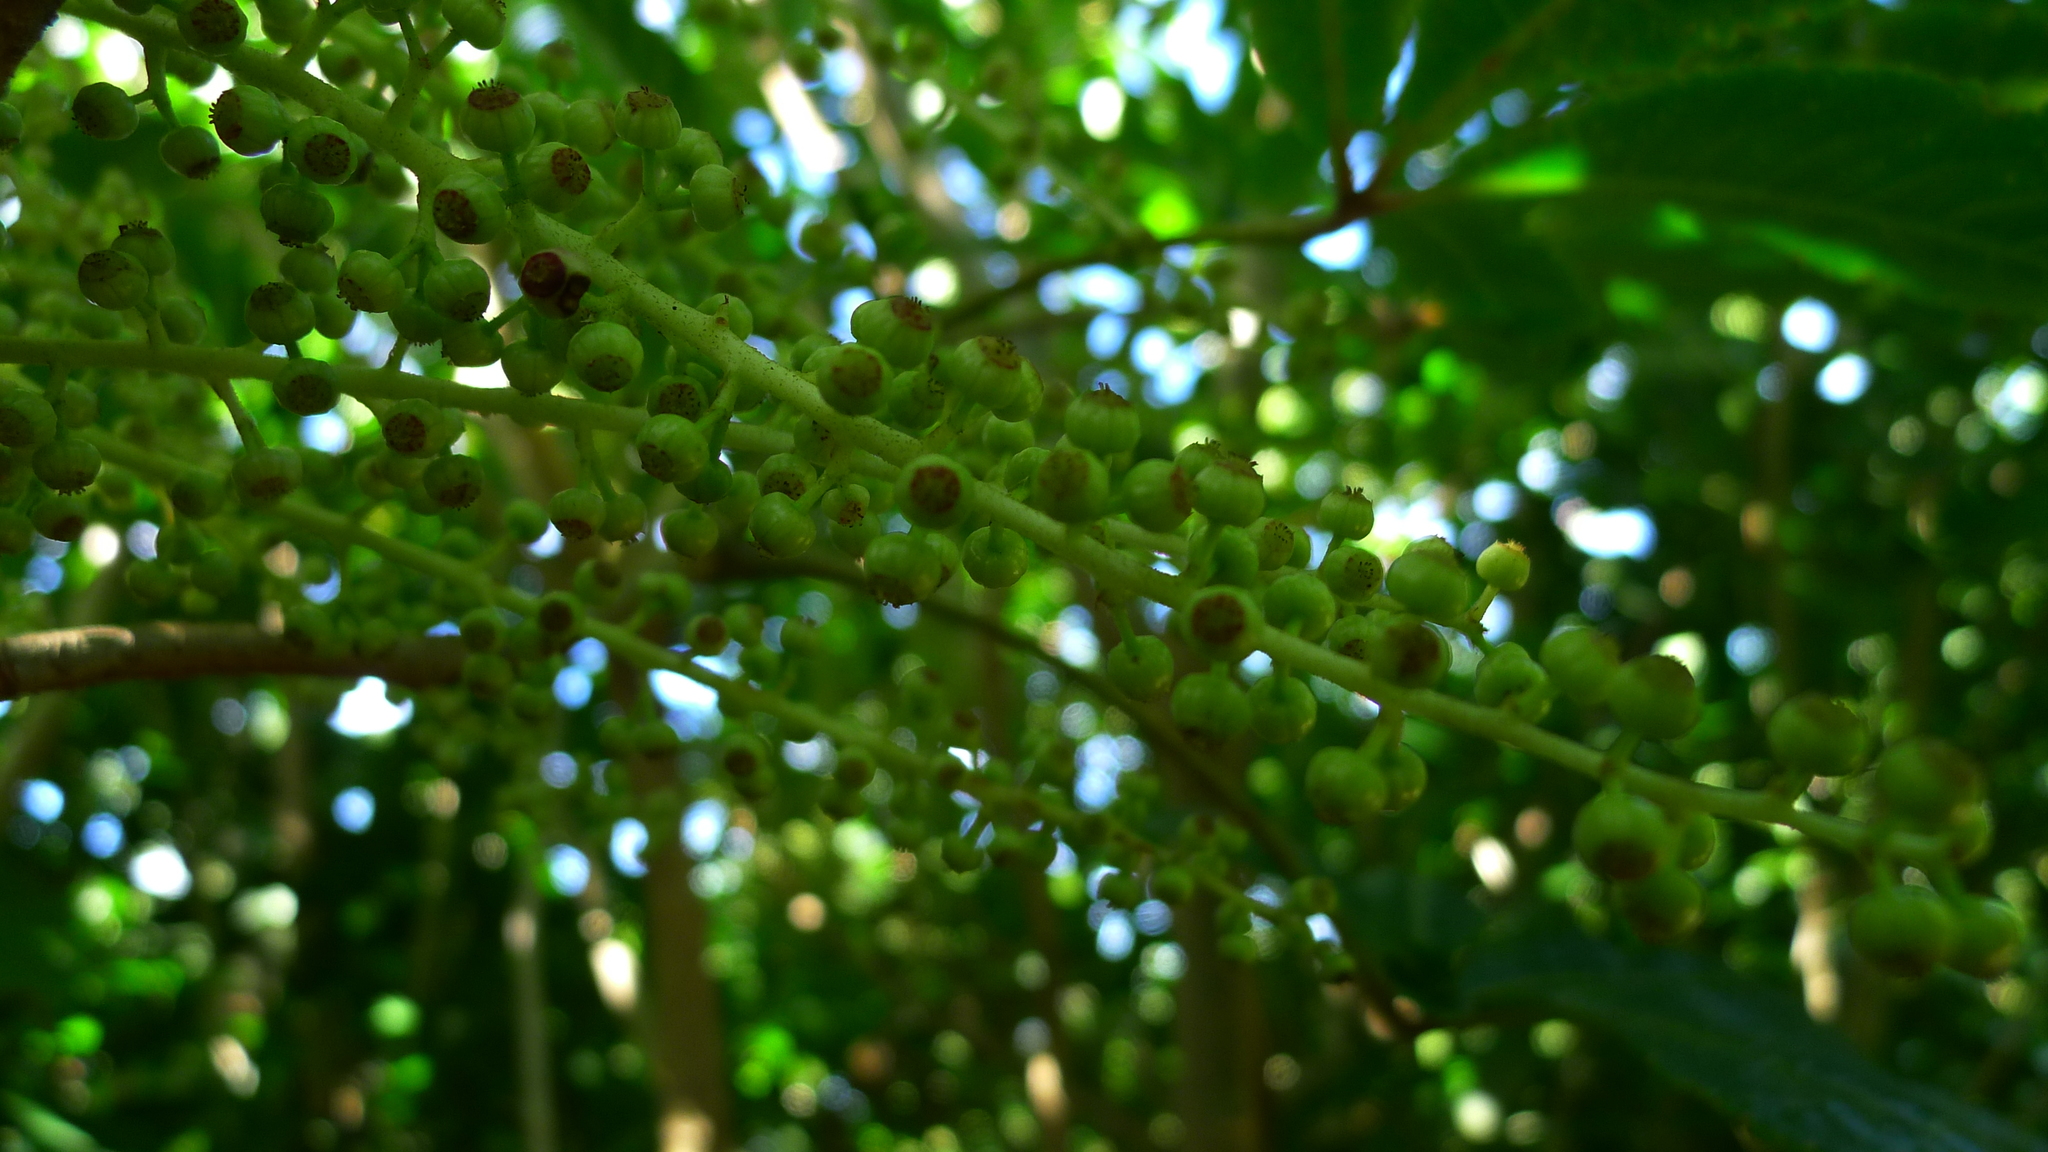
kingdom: Plantae
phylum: Tracheophyta
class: Magnoliopsida
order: Apiales
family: Araliaceae
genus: Schefflera
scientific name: Schefflera digitata
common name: Pate
